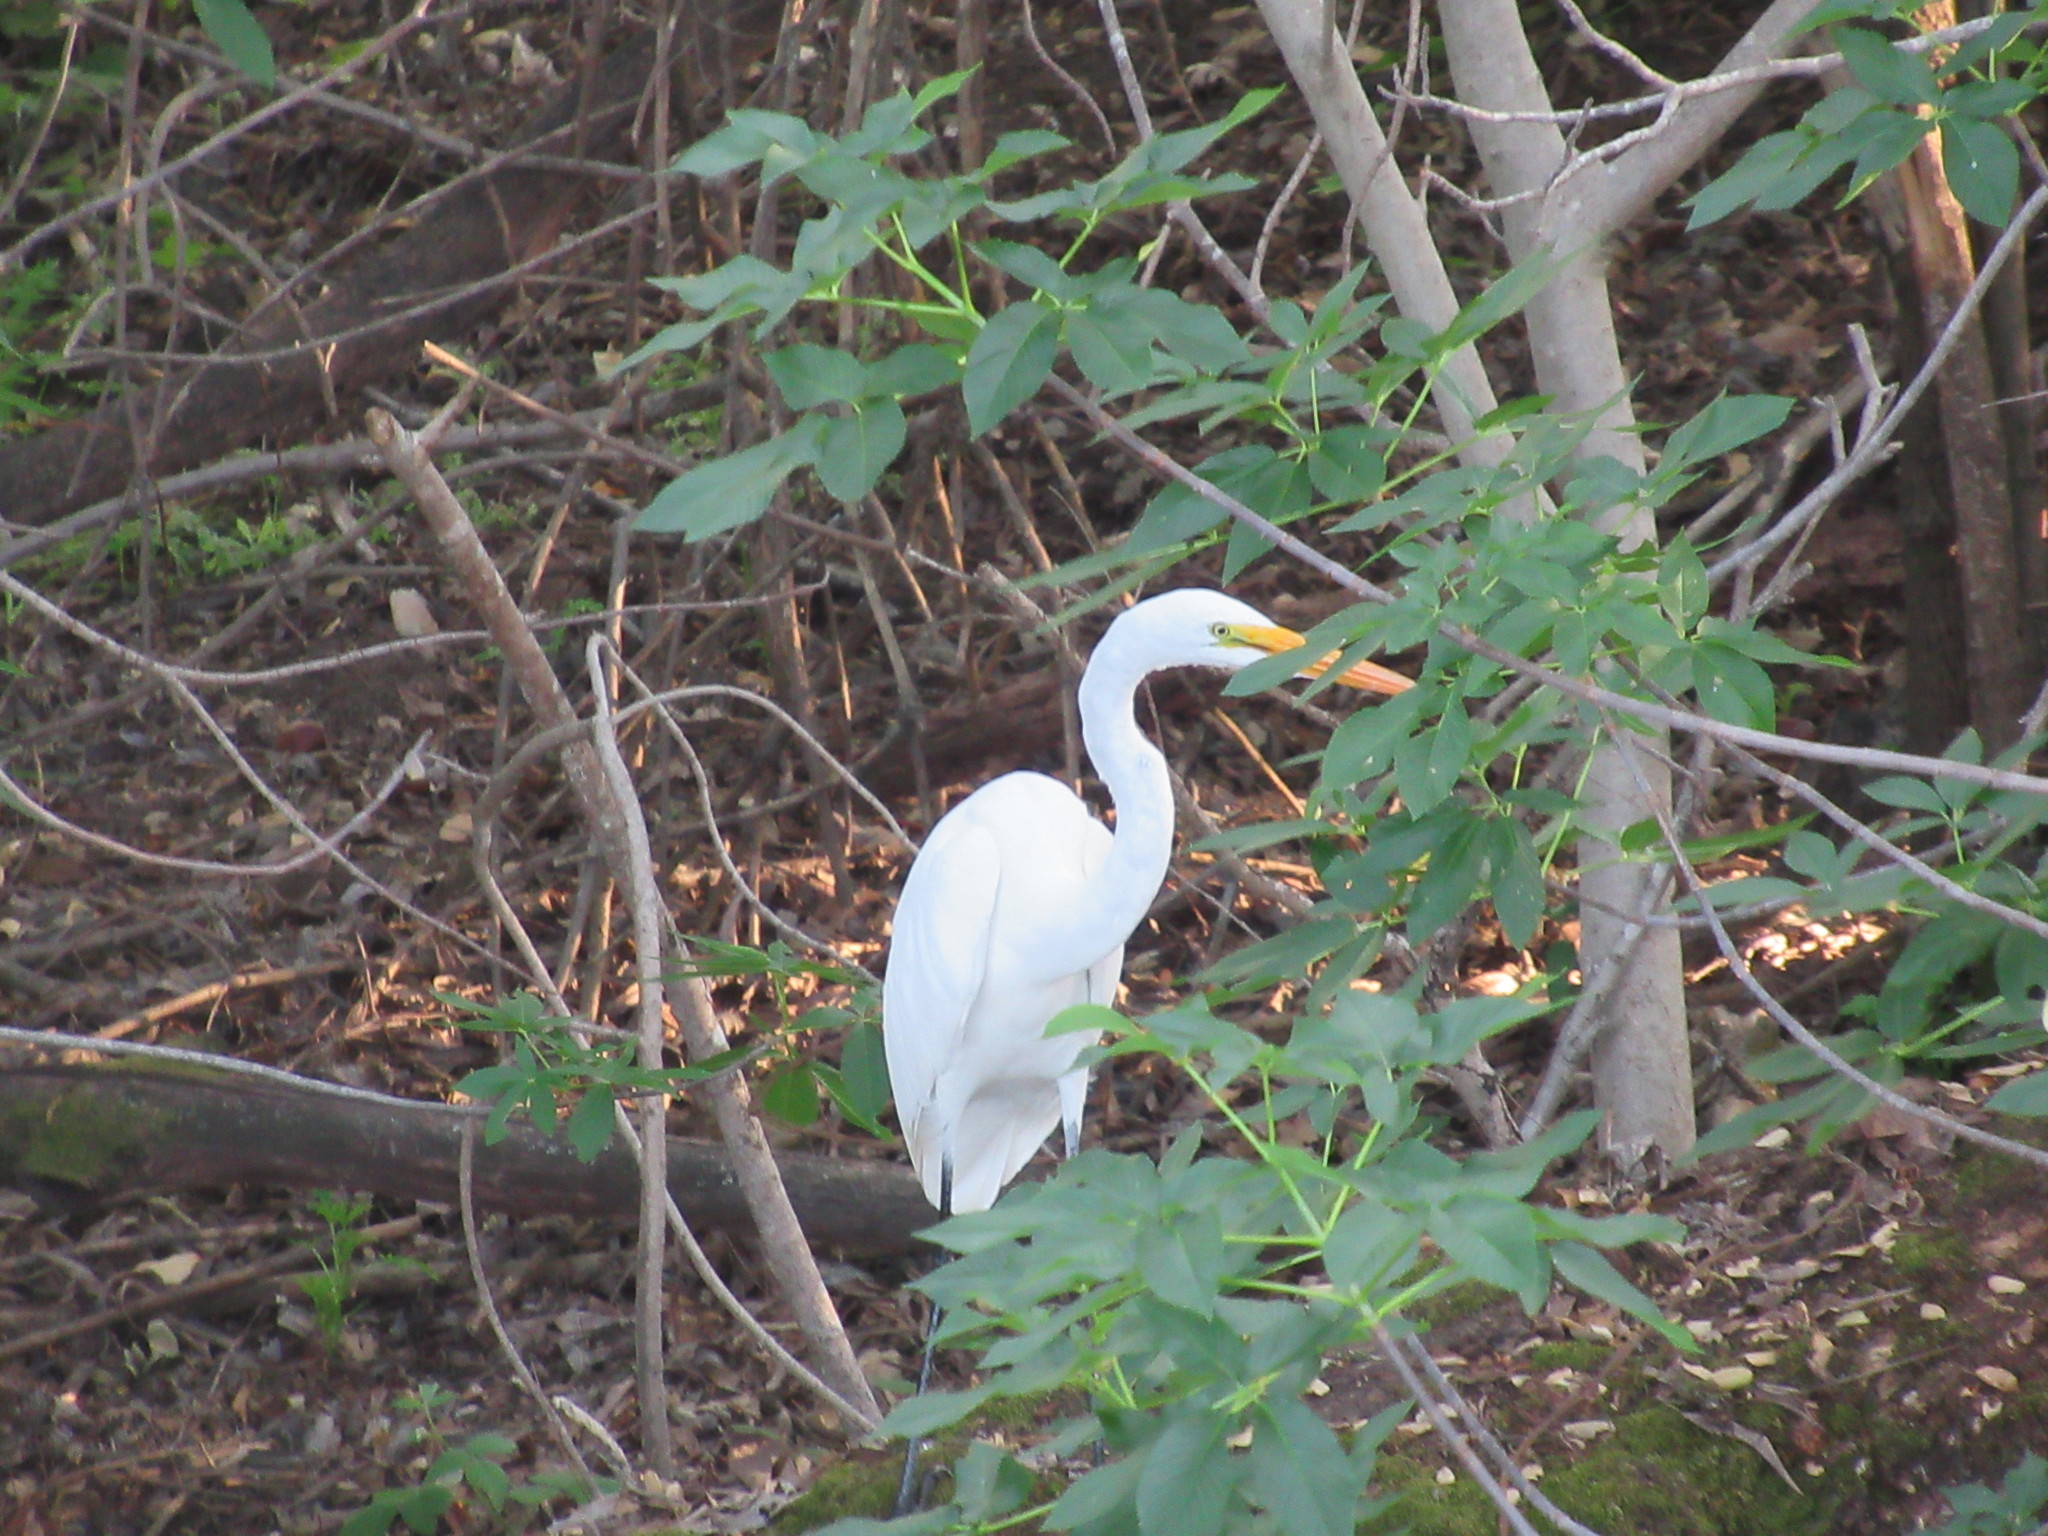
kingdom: Animalia
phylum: Chordata
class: Aves
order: Pelecaniformes
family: Ardeidae
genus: Ardea
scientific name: Ardea alba
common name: Great egret
